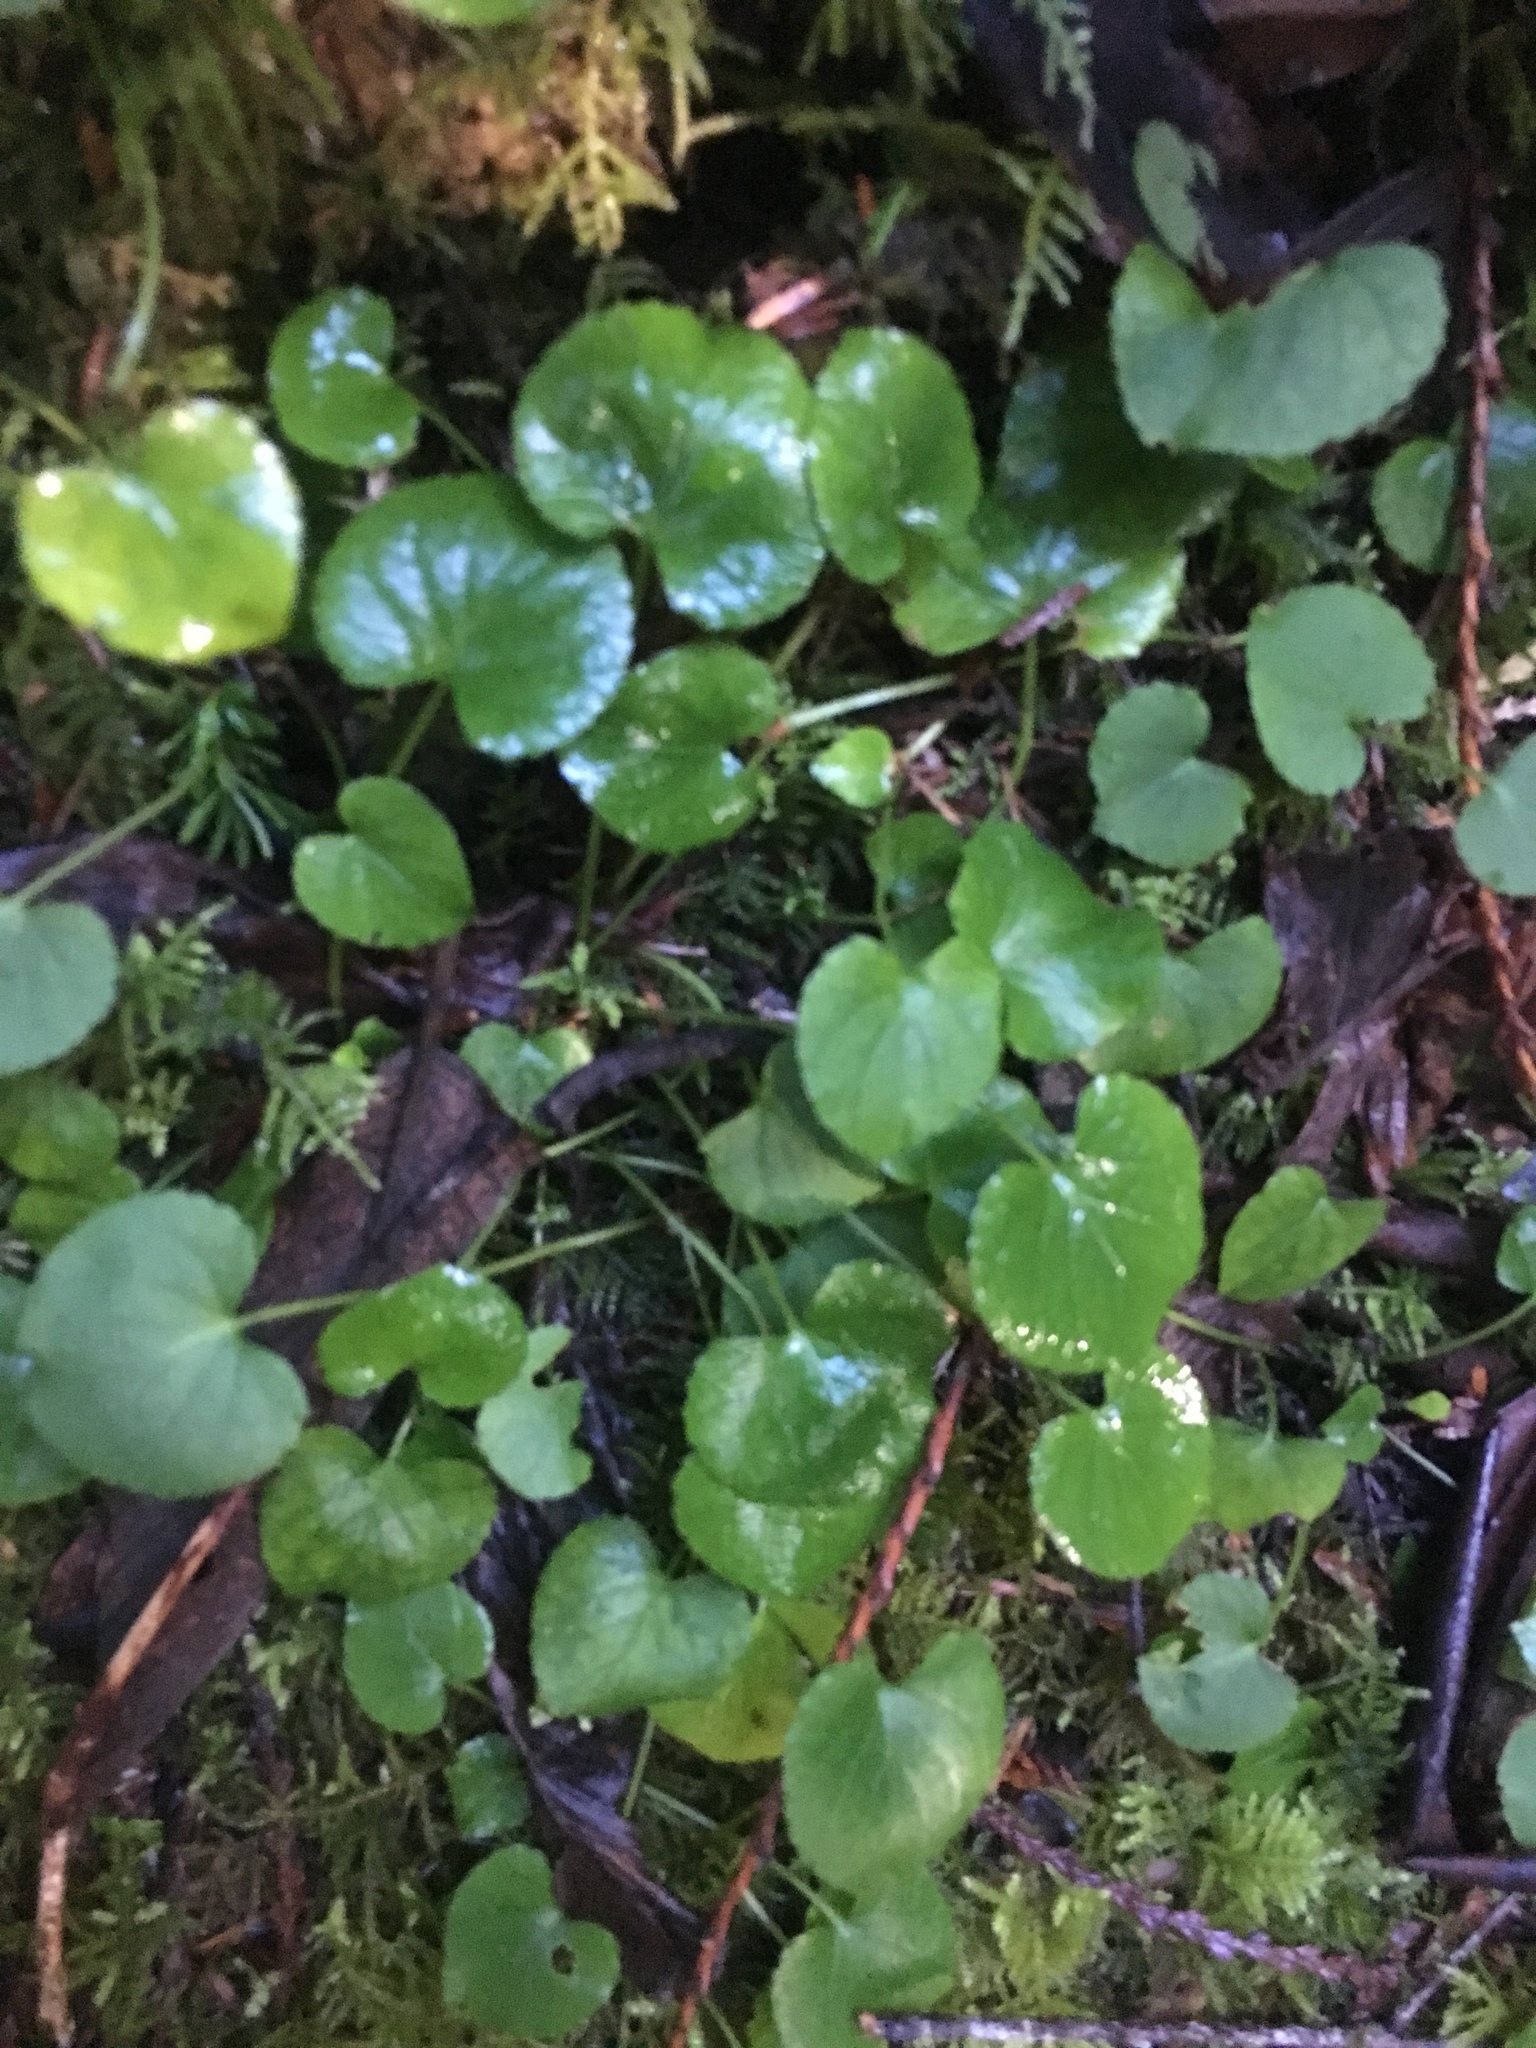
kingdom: Plantae
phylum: Tracheophyta
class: Magnoliopsida
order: Malpighiales
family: Violaceae
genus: Viola
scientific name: Viola sempervirens
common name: Evergreen violet
